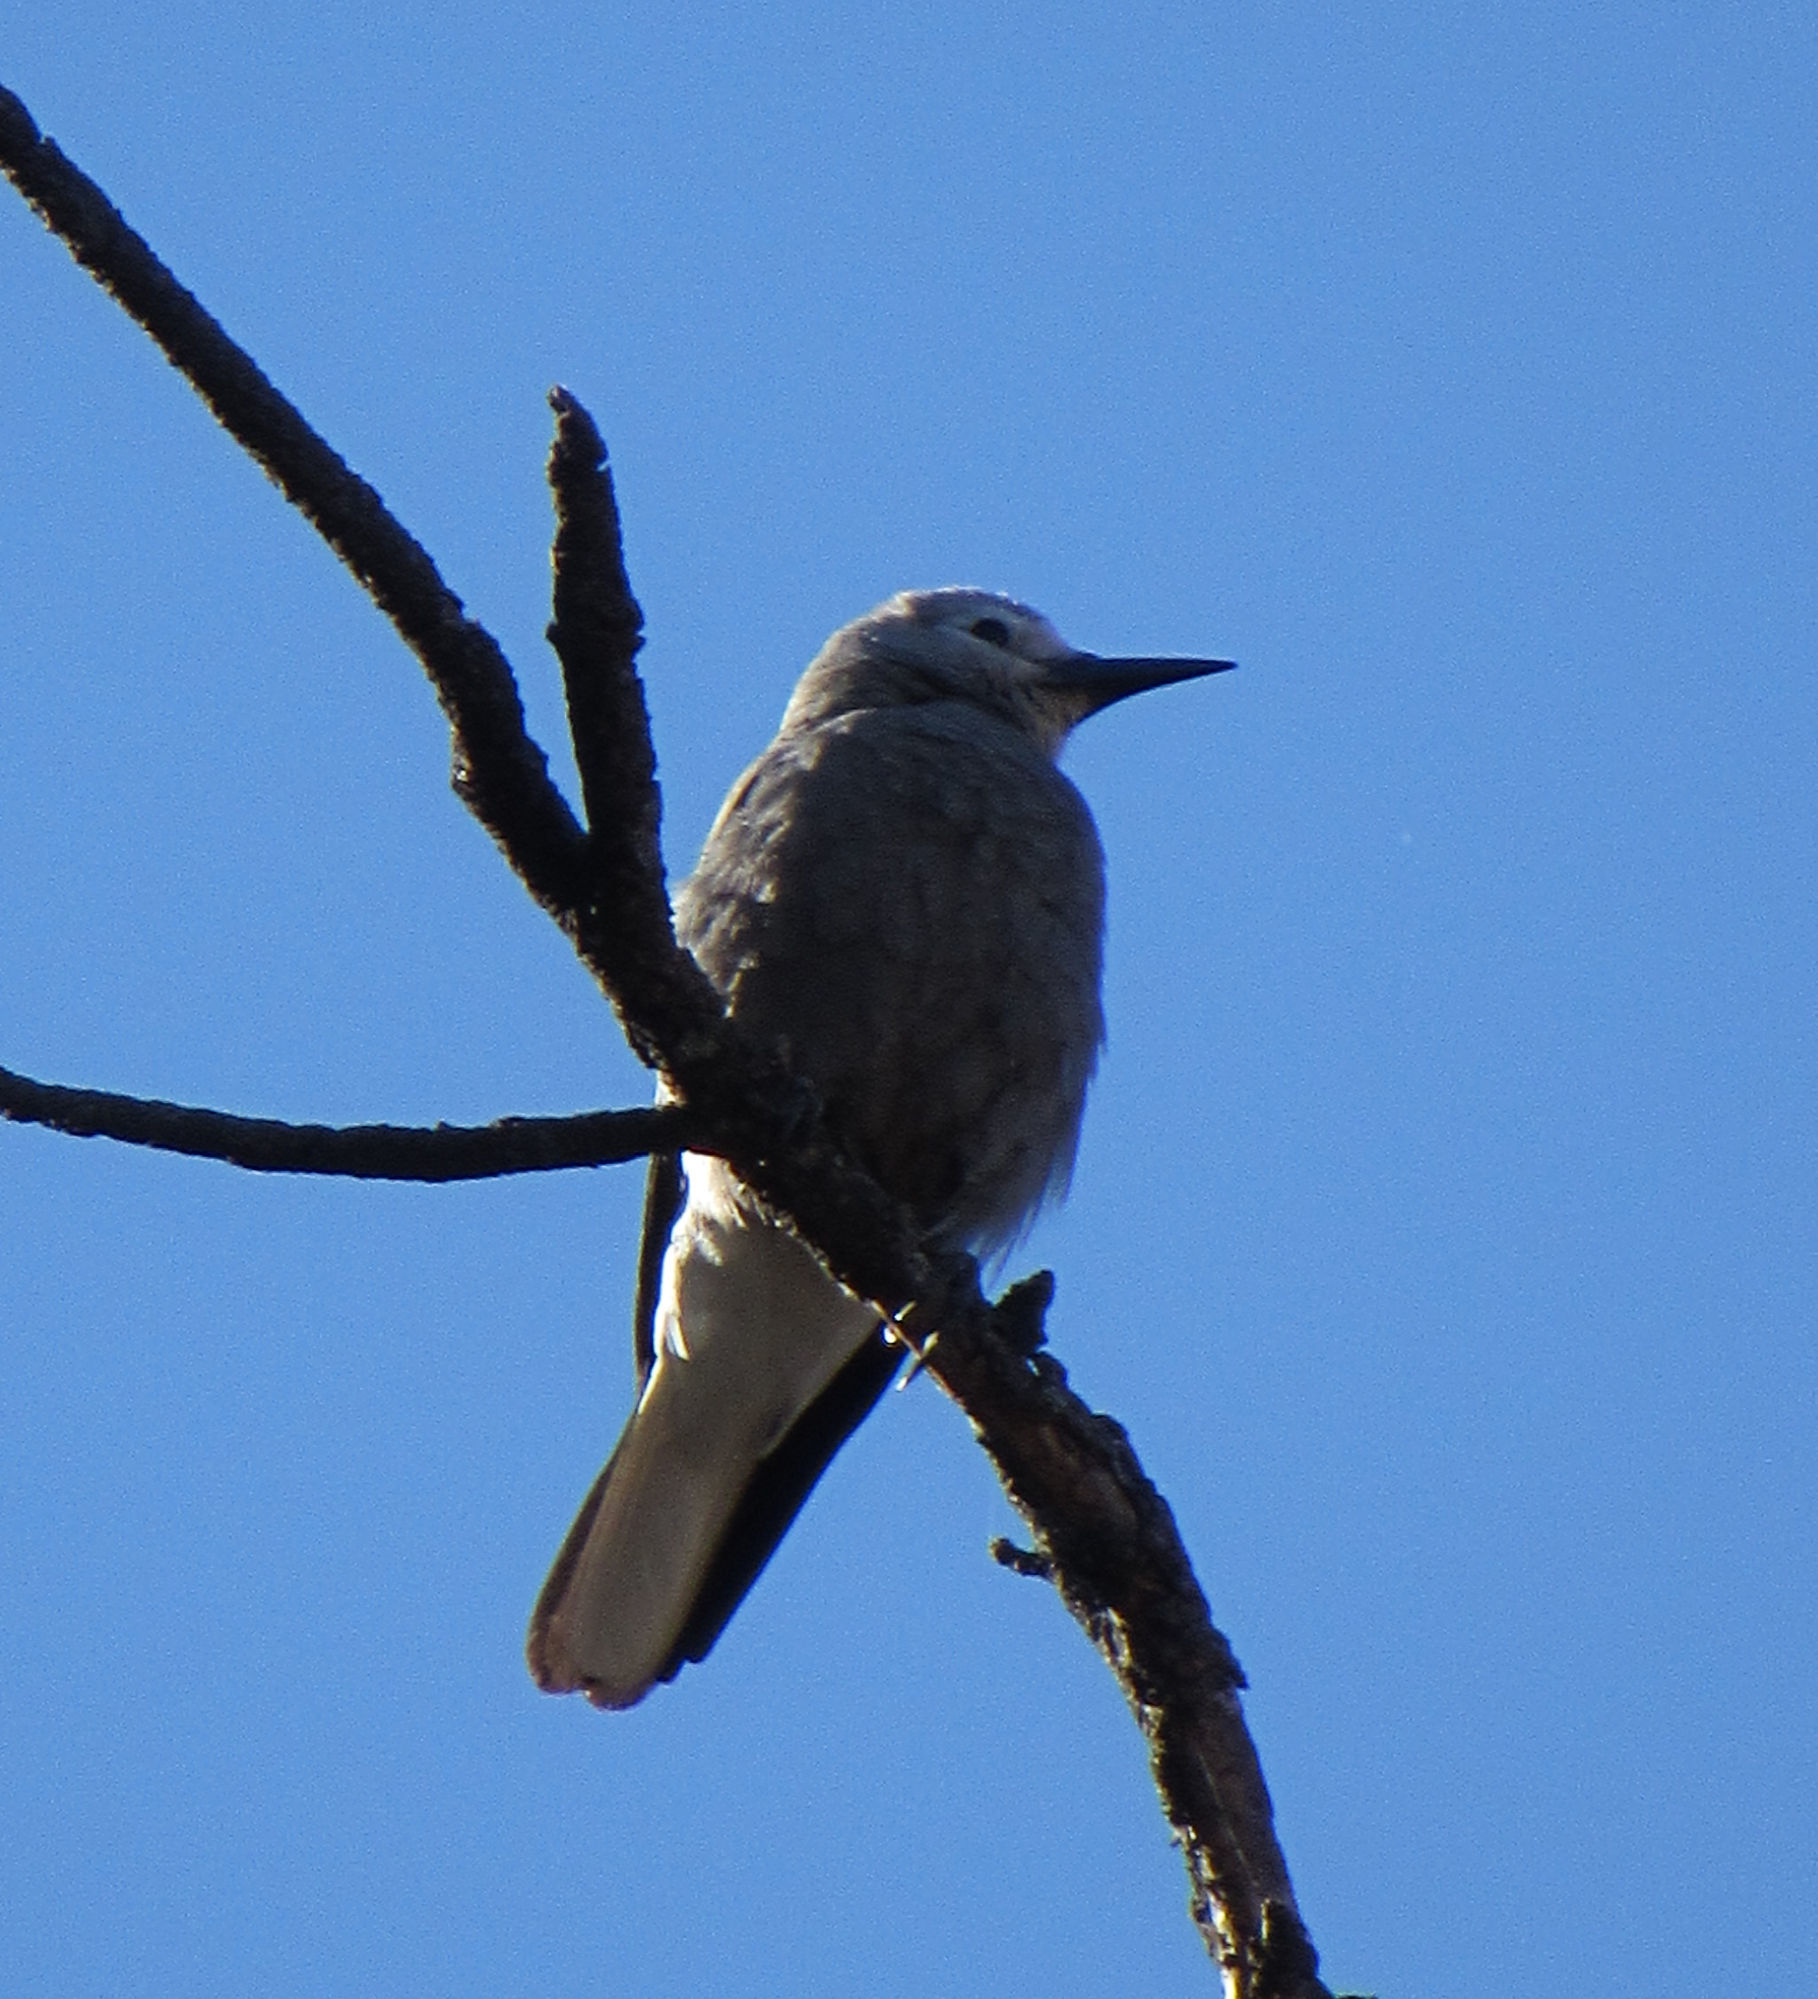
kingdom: Animalia
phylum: Chordata
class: Aves
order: Passeriformes
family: Corvidae
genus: Nucifraga
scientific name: Nucifraga columbiana
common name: Clark's nutcracker
